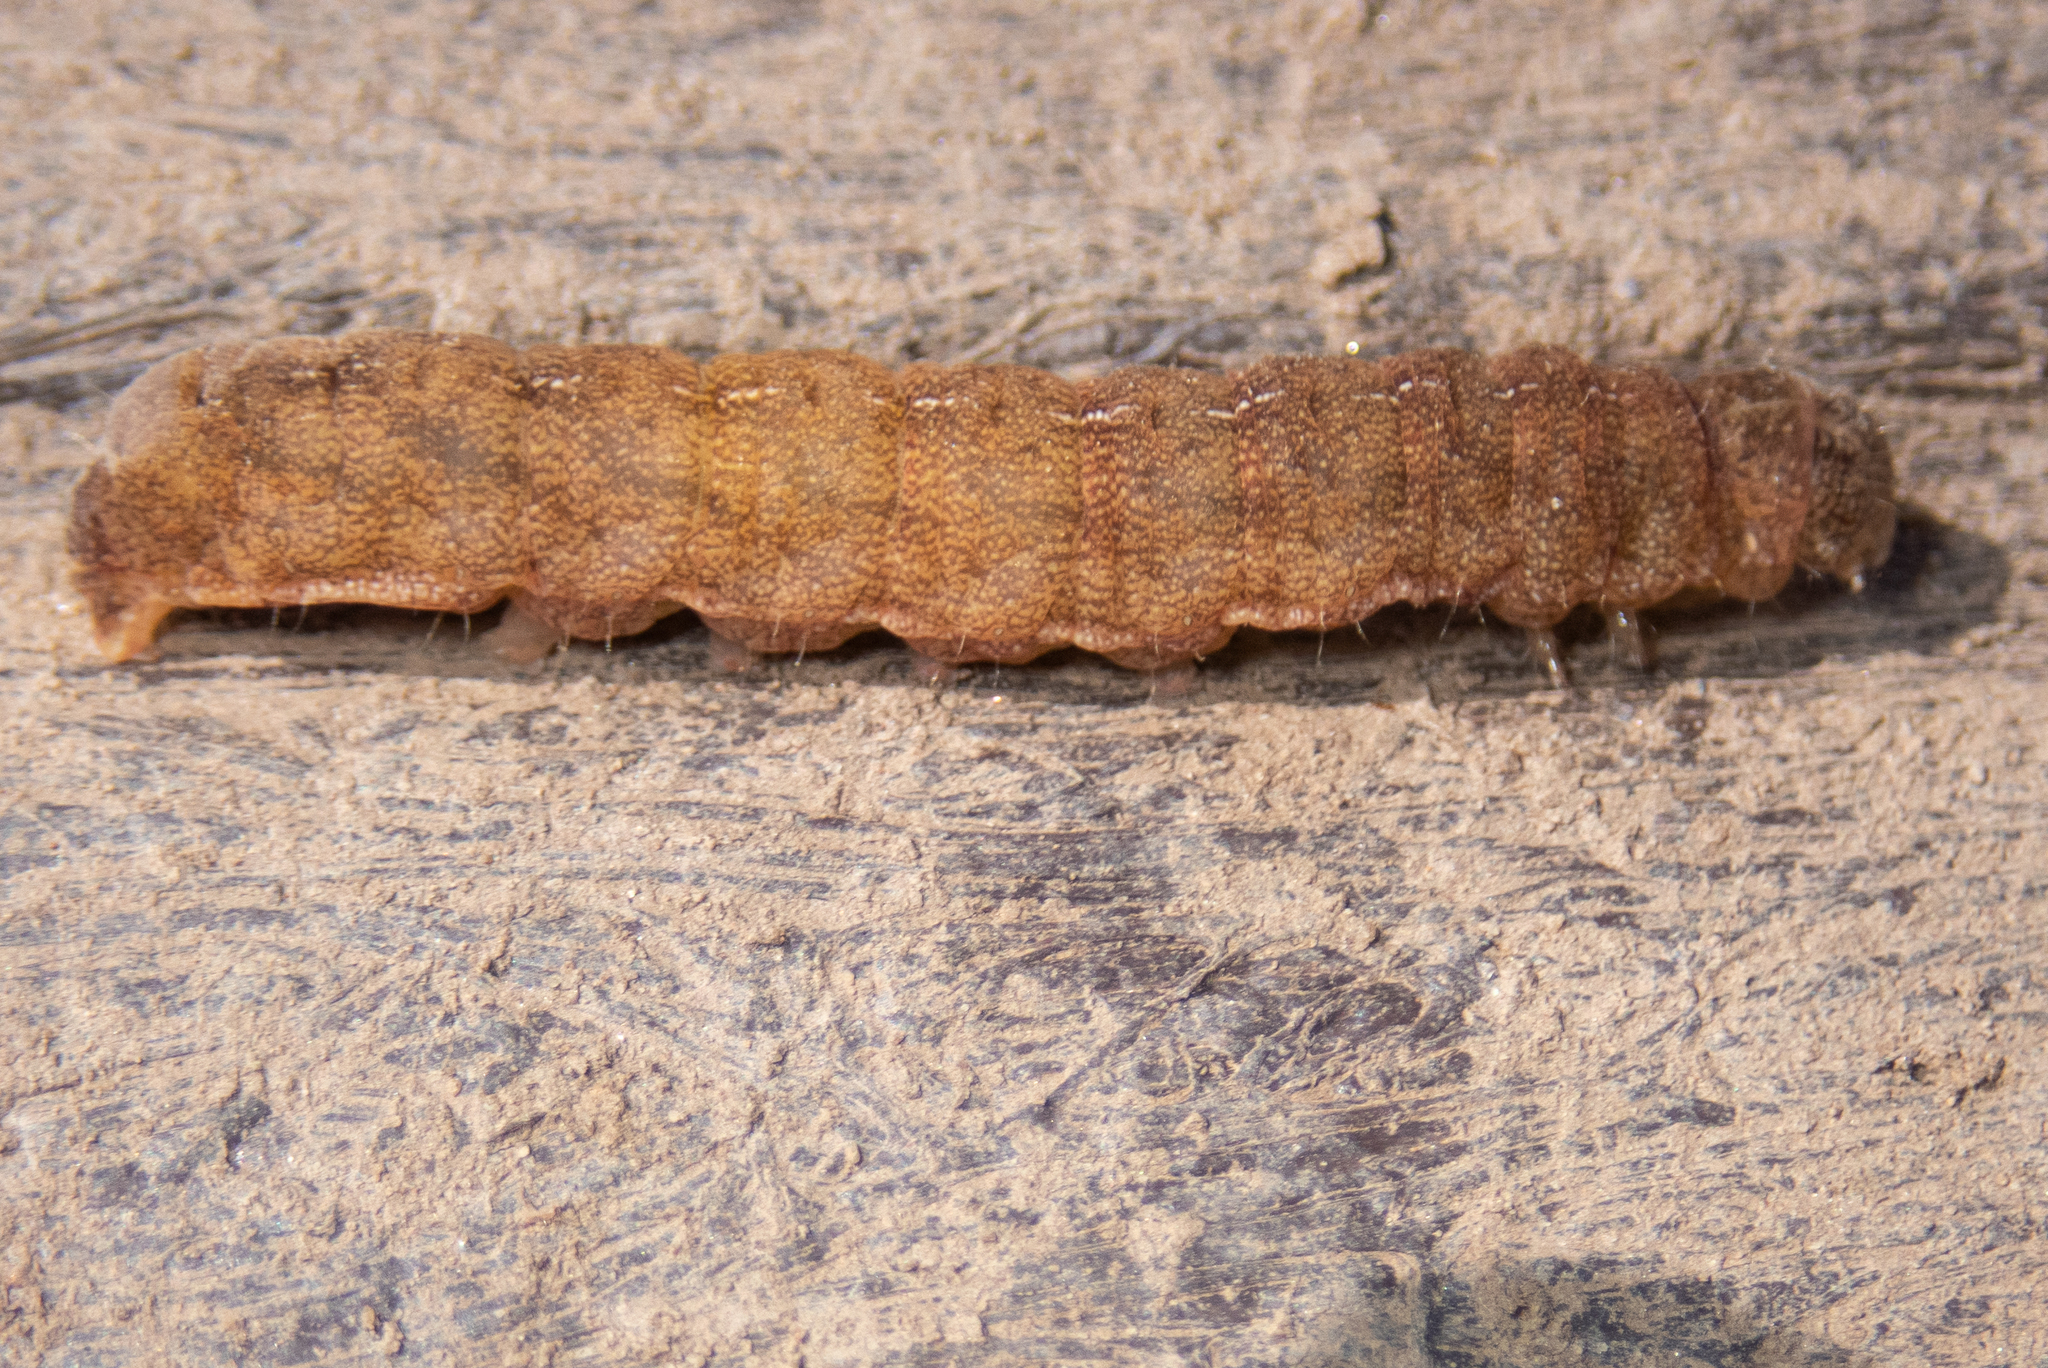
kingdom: Animalia
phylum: Arthropoda
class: Insecta
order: Lepidoptera
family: Noctuidae
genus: Phlogophora
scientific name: Phlogophora meticulosa
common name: Angle shades
